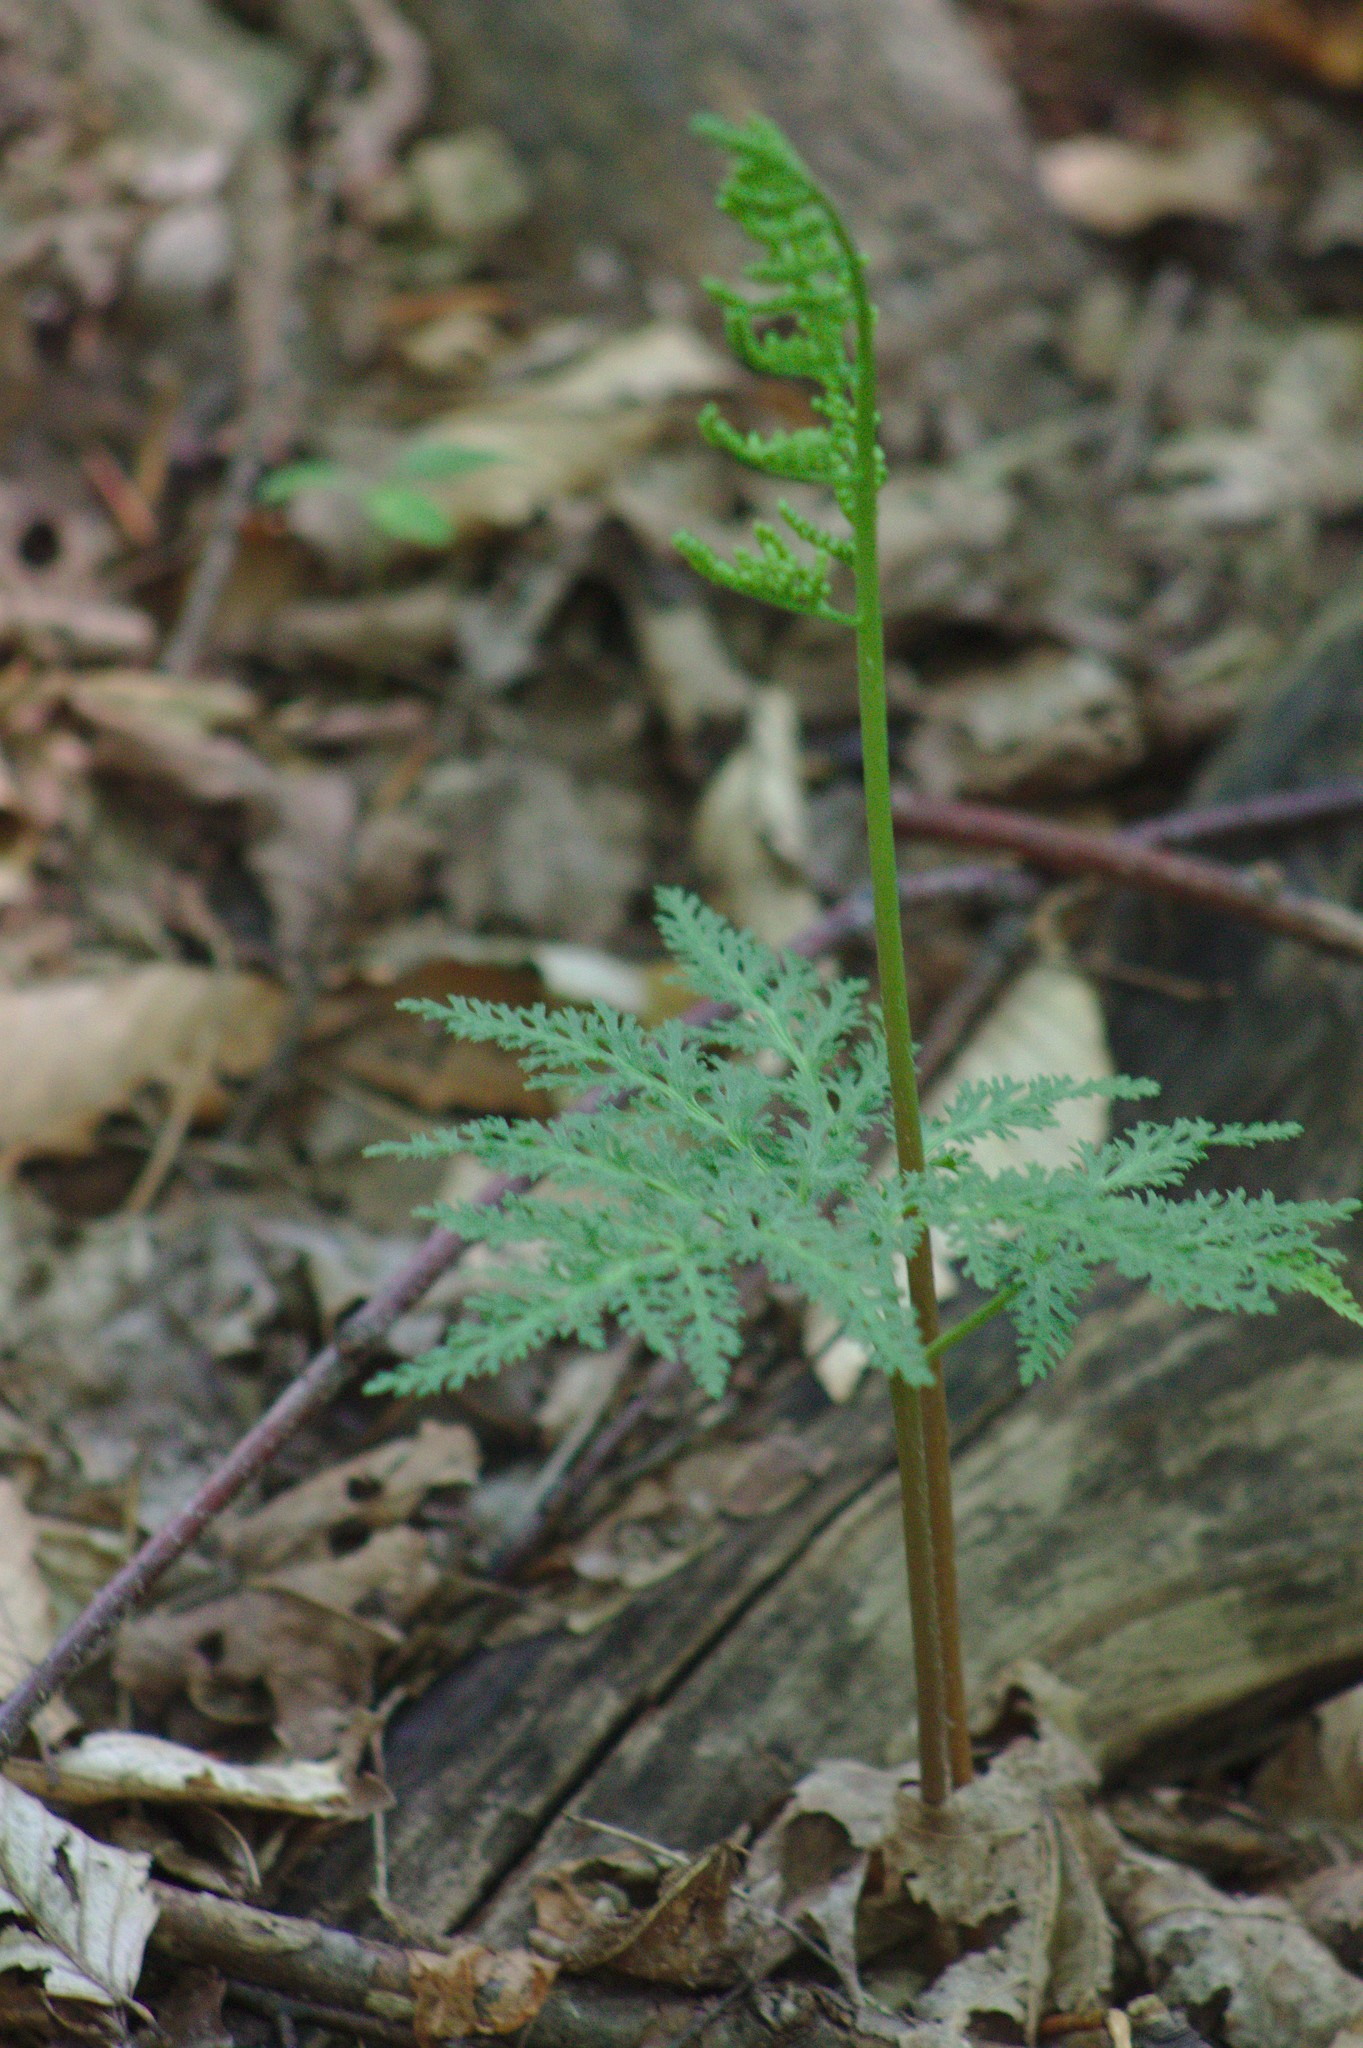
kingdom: Plantae
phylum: Tracheophyta
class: Polypodiopsida
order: Ophioglossales
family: Ophioglossaceae
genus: Sceptridium
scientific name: Sceptridium dissectum
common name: Cut-leaved grapefern
